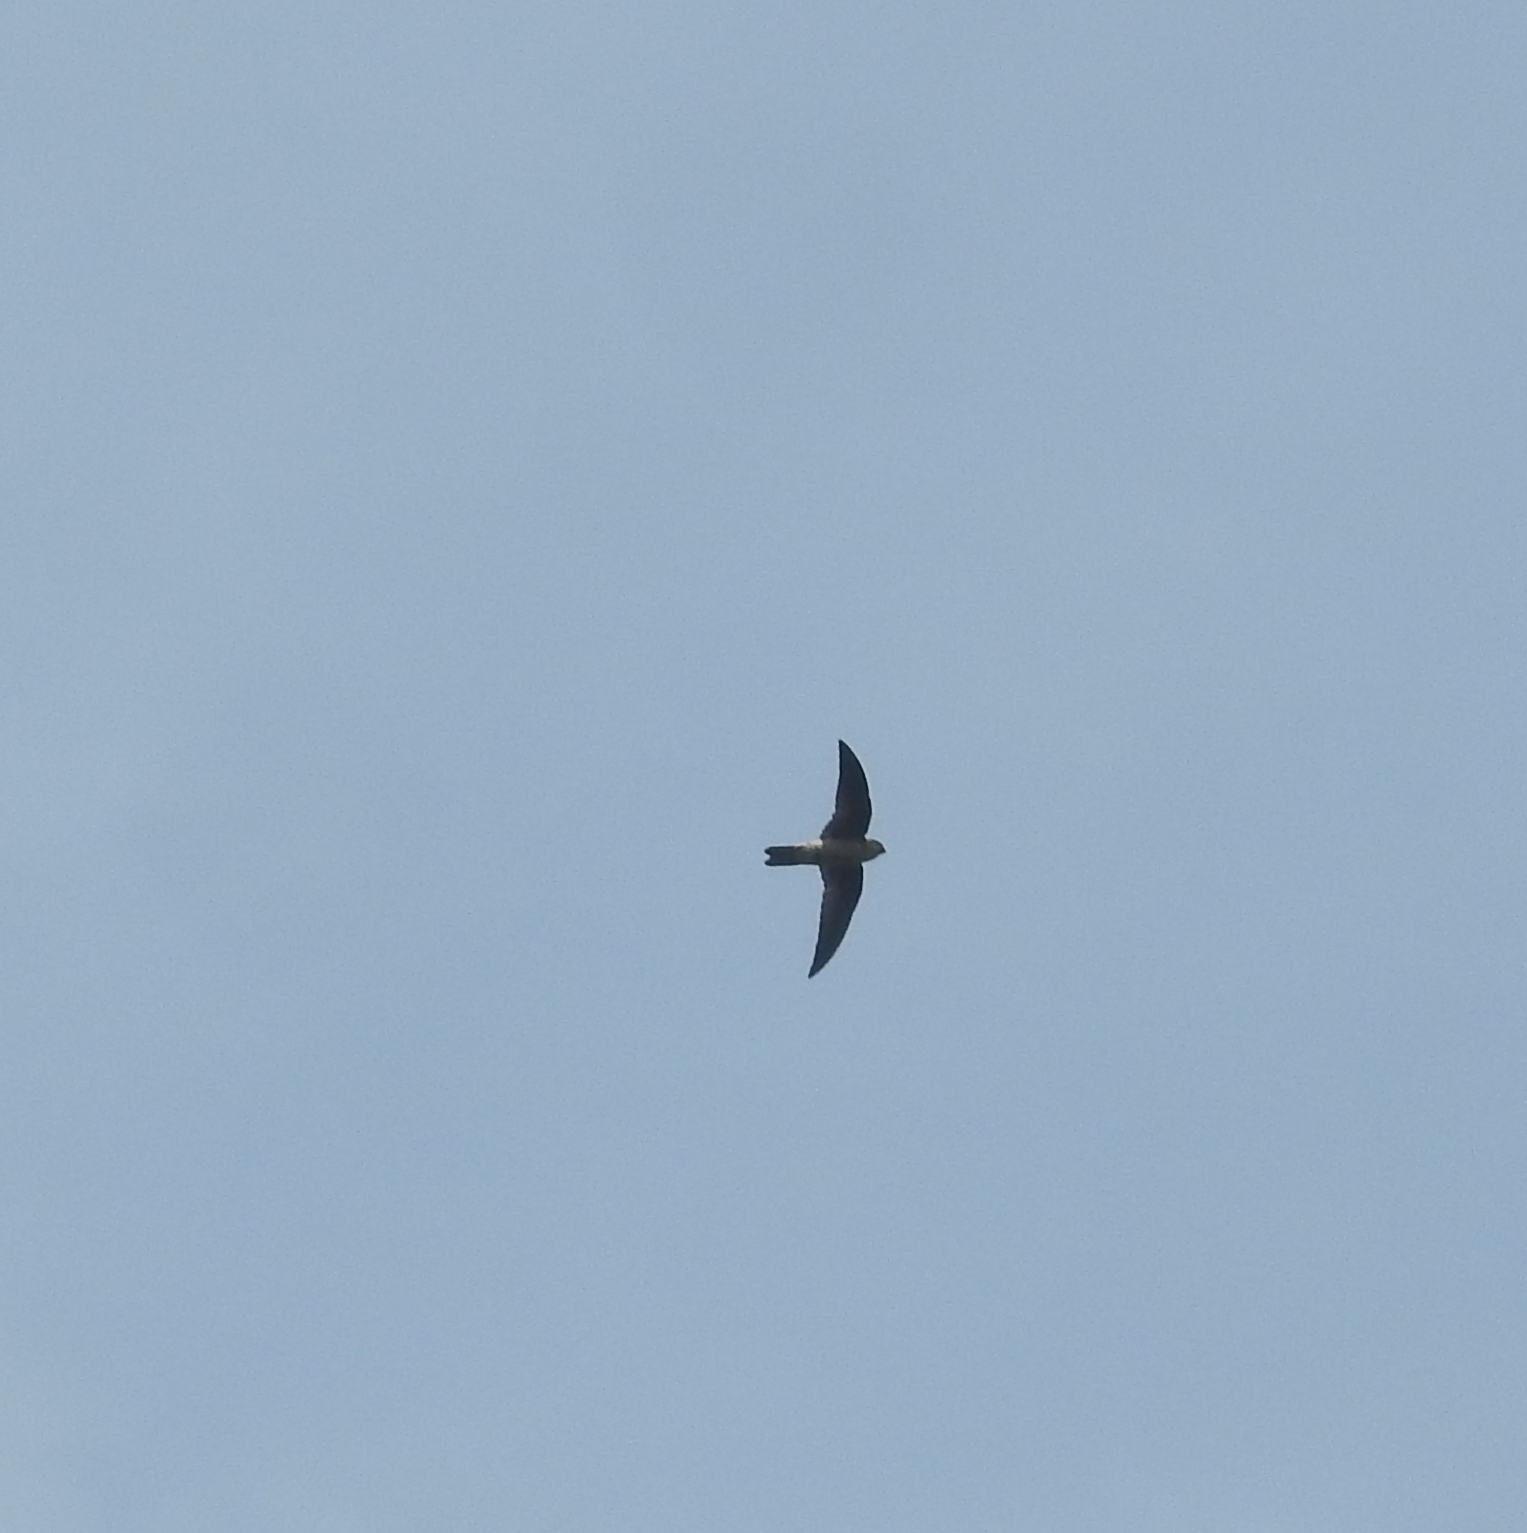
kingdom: Animalia
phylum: Chordata
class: Aves
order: Apodiformes
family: Apodidae
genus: Aerodramus
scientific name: Aerodramus
